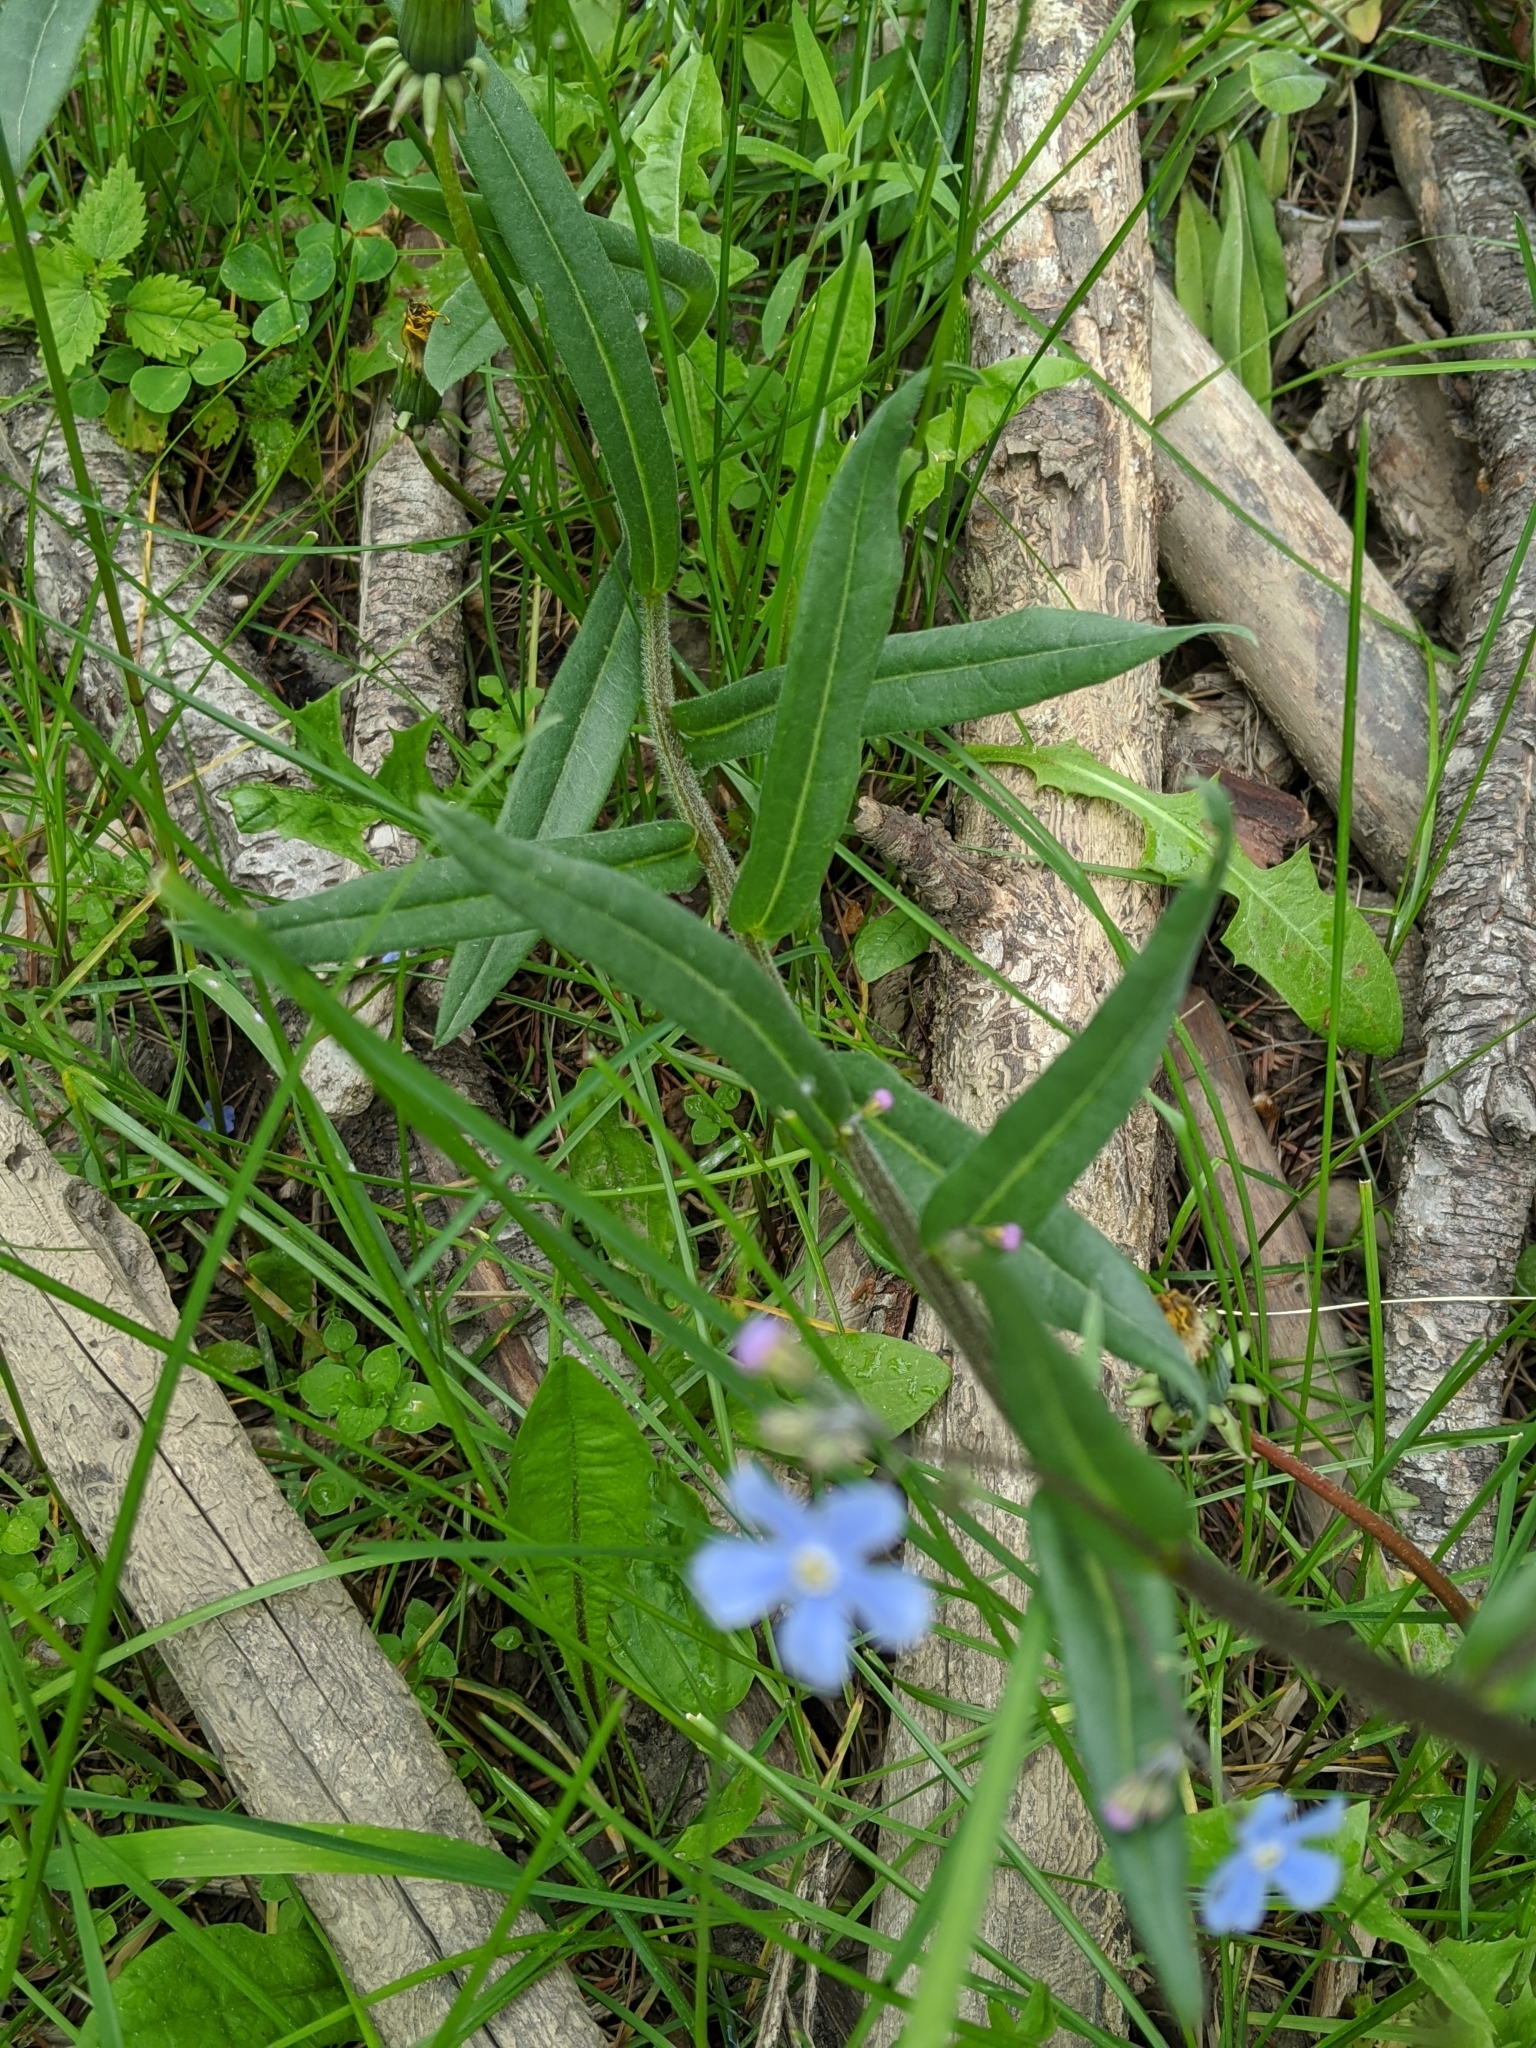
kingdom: Plantae
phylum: Tracheophyta
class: Magnoliopsida
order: Boraginales
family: Boraginaceae
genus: Hackelia
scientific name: Hackelia micrantha
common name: Meadow stickseed
